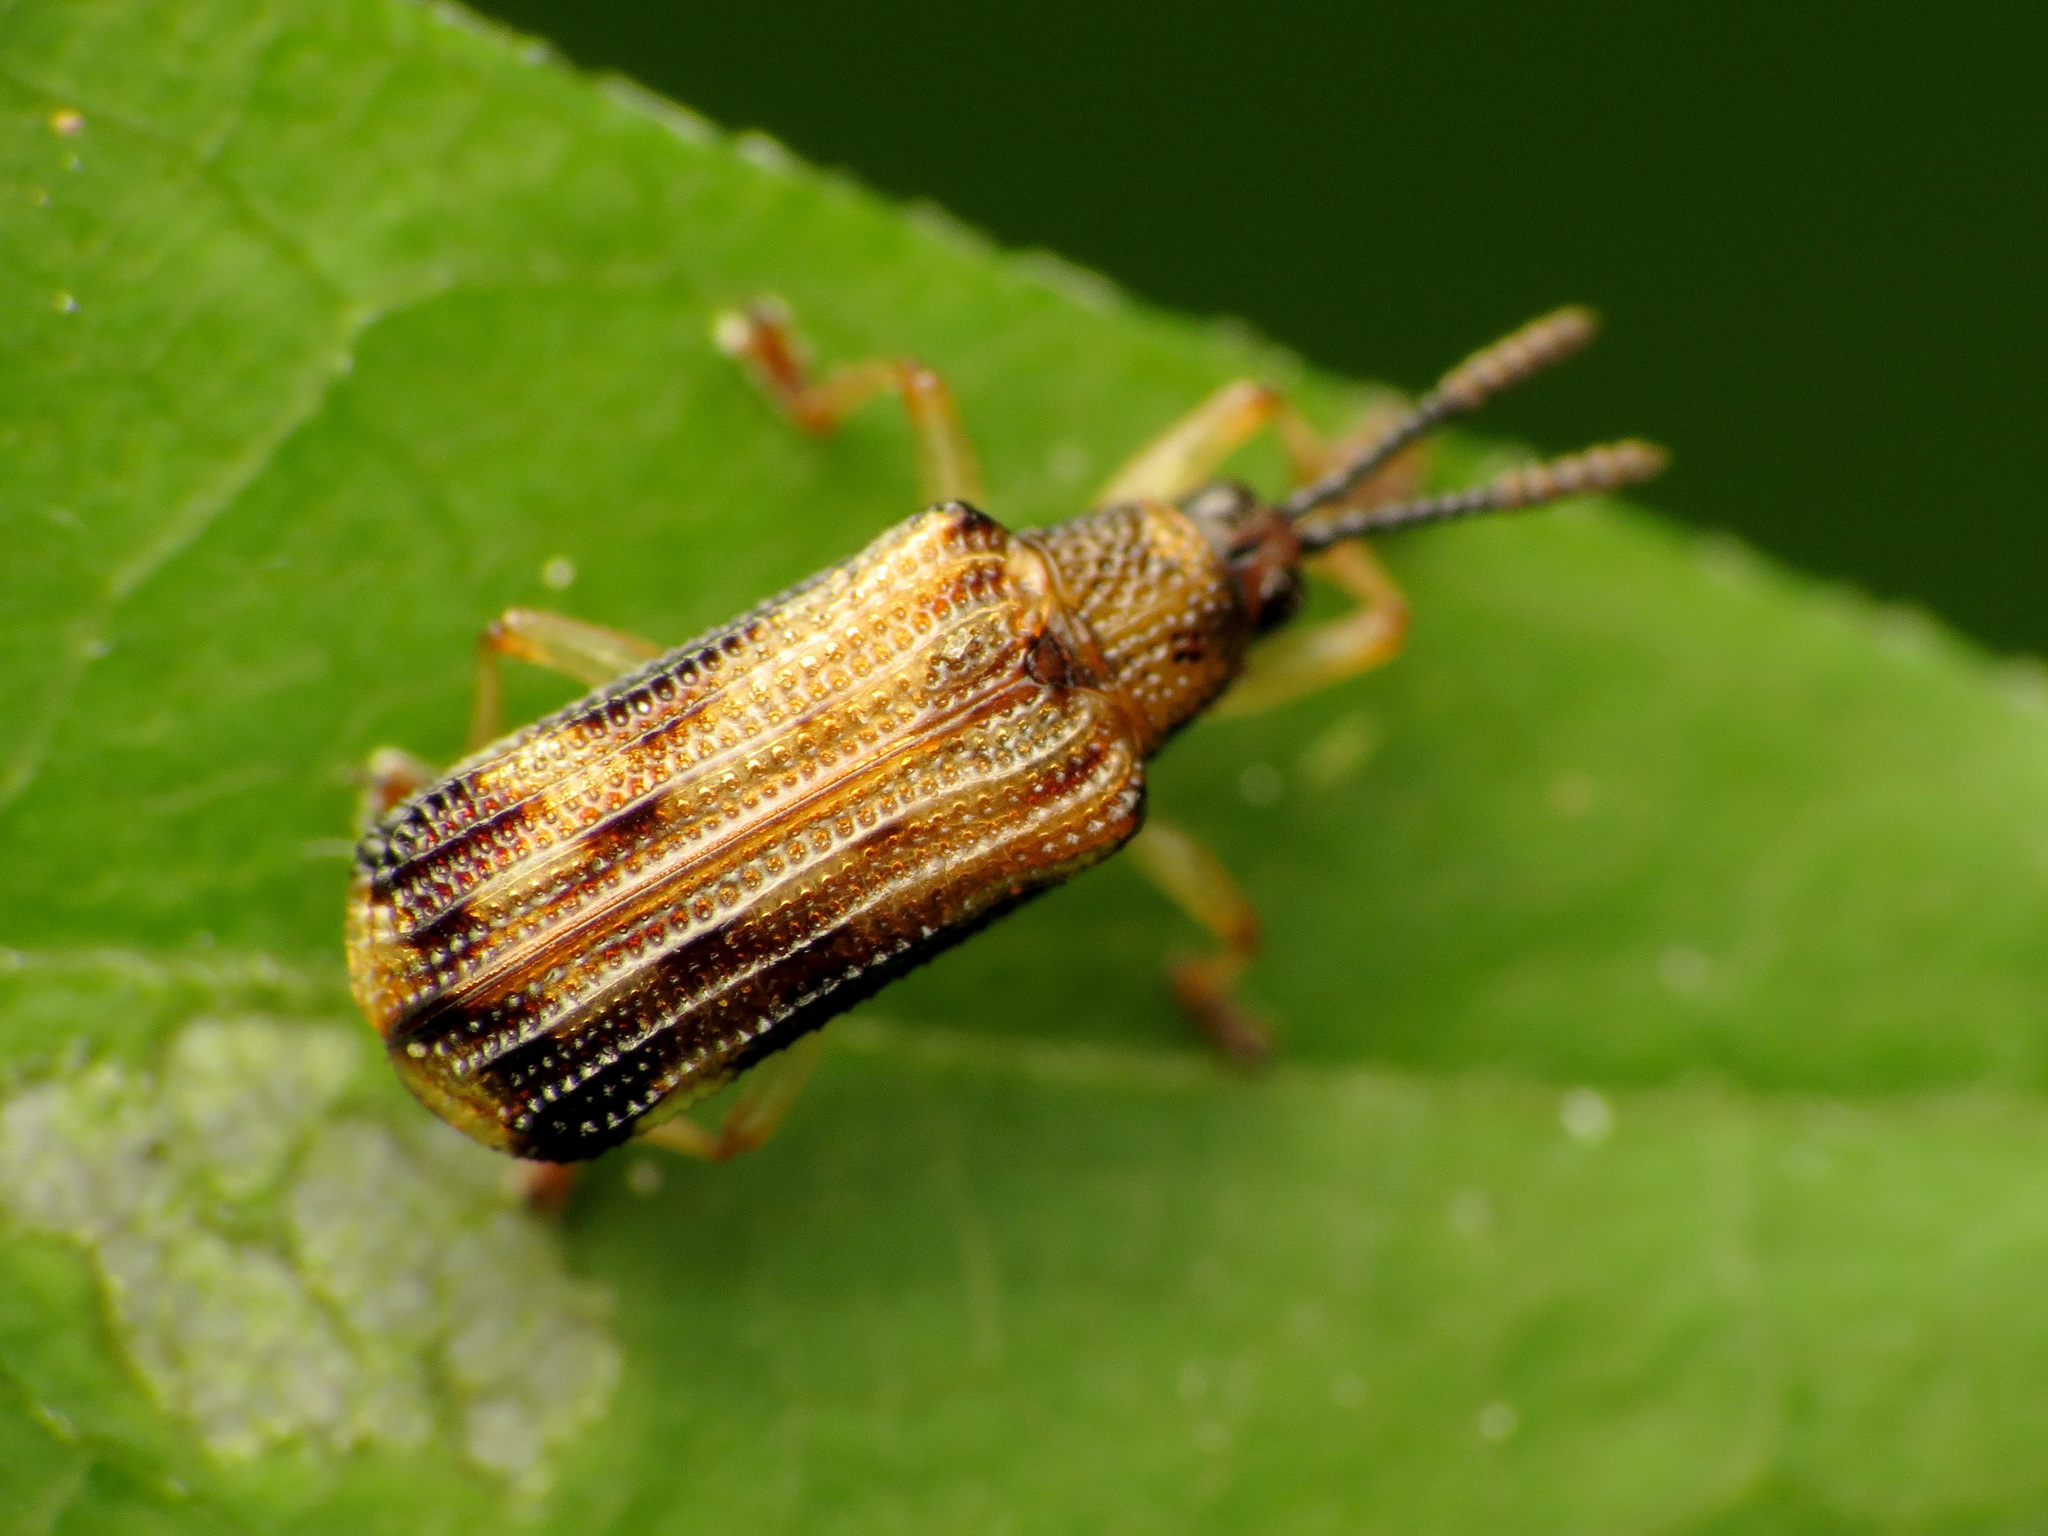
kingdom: Animalia
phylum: Arthropoda
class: Insecta
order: Coleoptera
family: Chrysomelidae
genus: Sumitrosis
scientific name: Sumitrosis inaequalis
